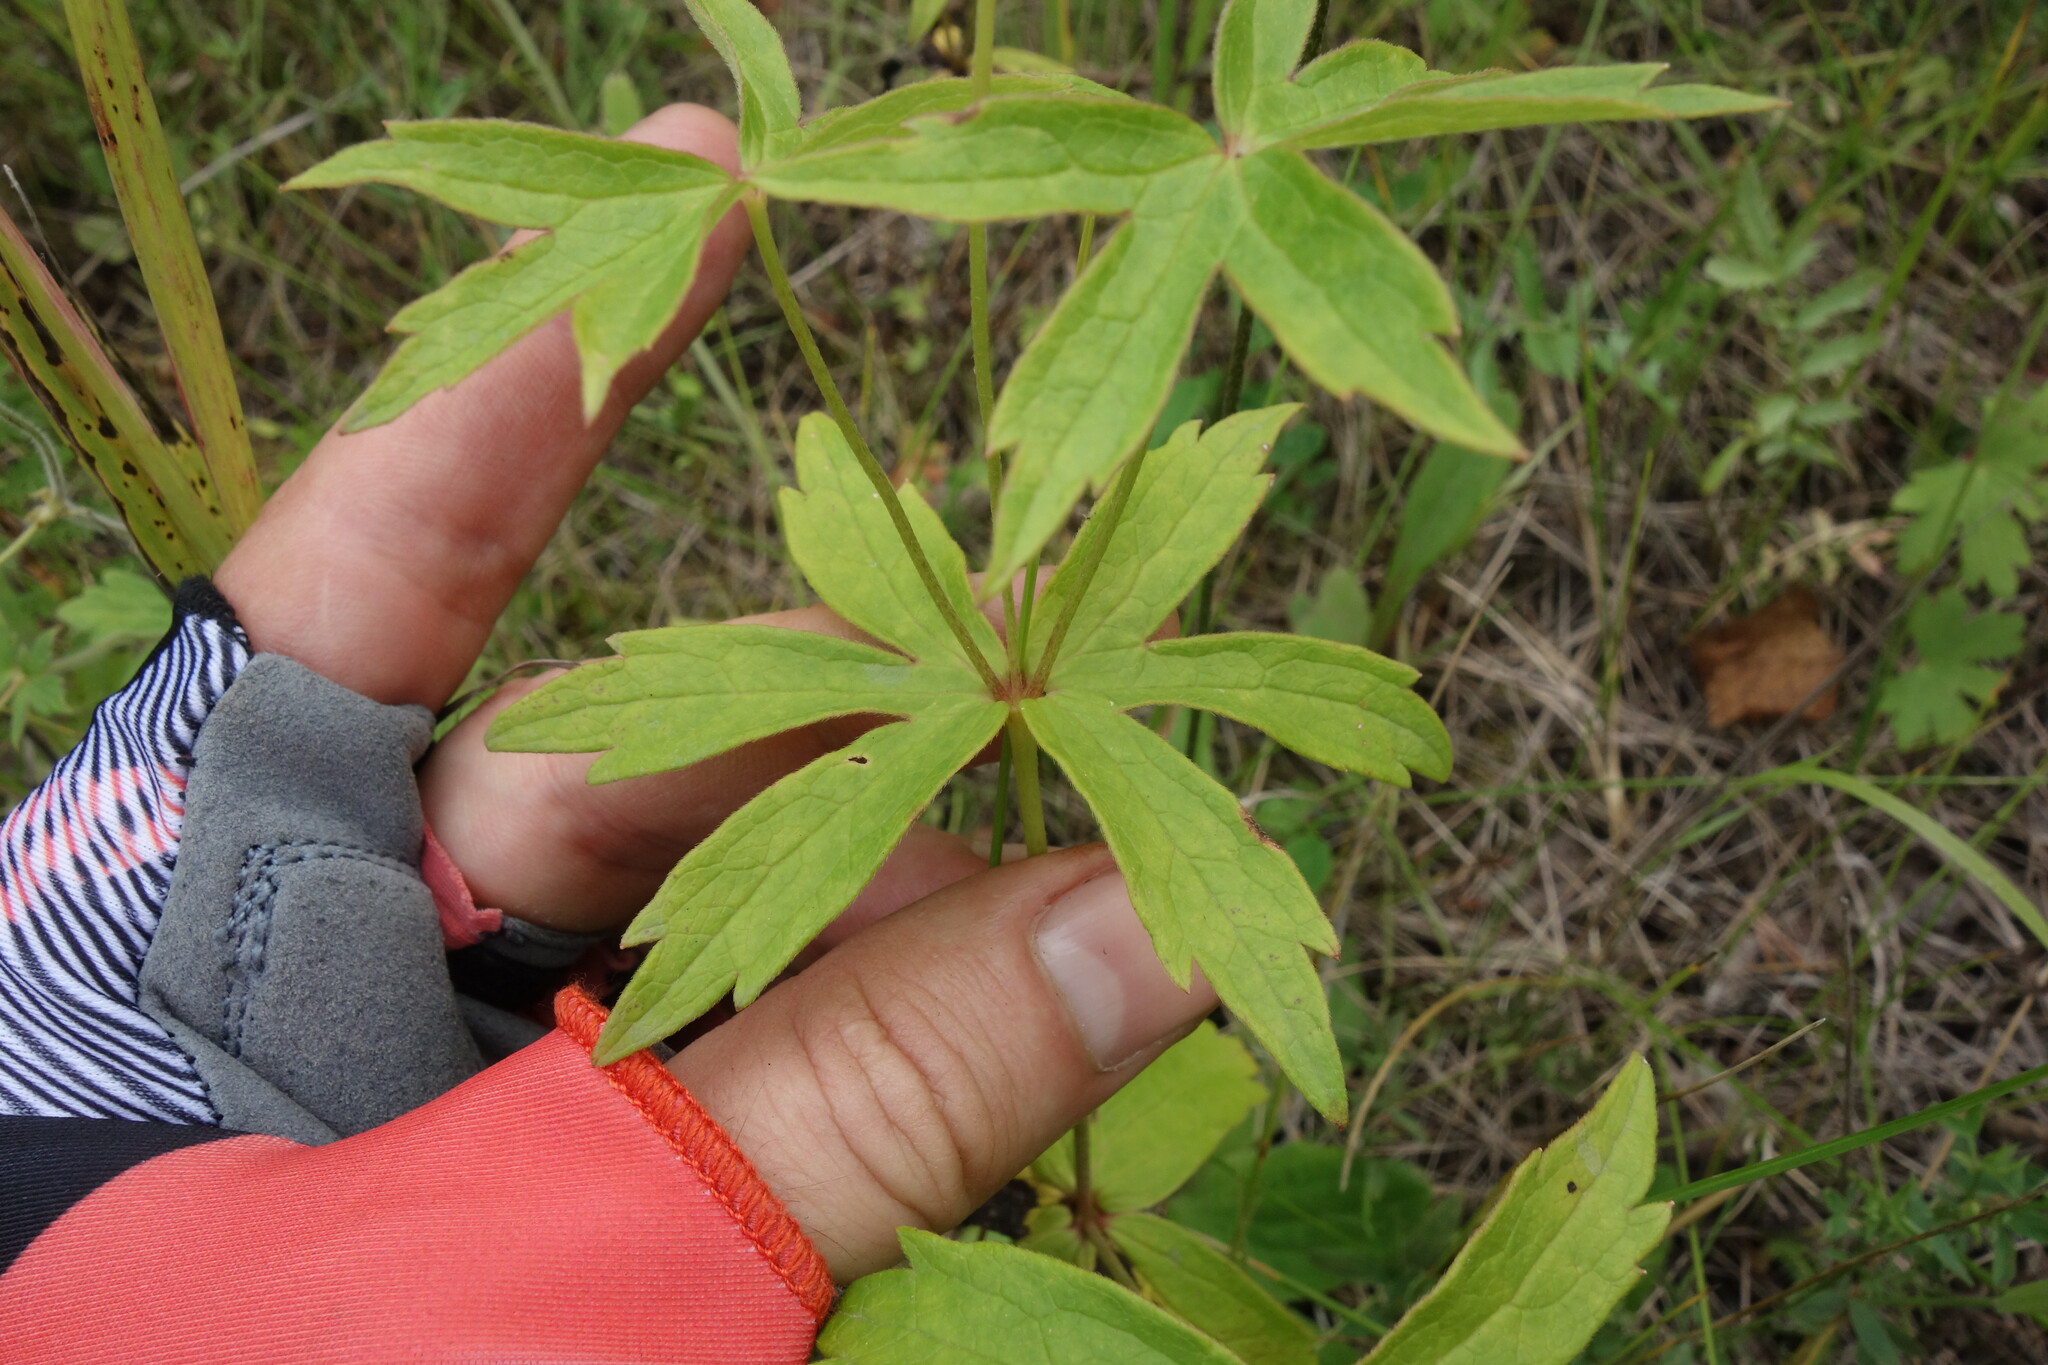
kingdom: Plantae
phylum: Tracheophyta
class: Magnoliopsida
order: Ranunculales
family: Ranunculaceae
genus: Anemonastrum
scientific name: Anemonastrum dichotomum
